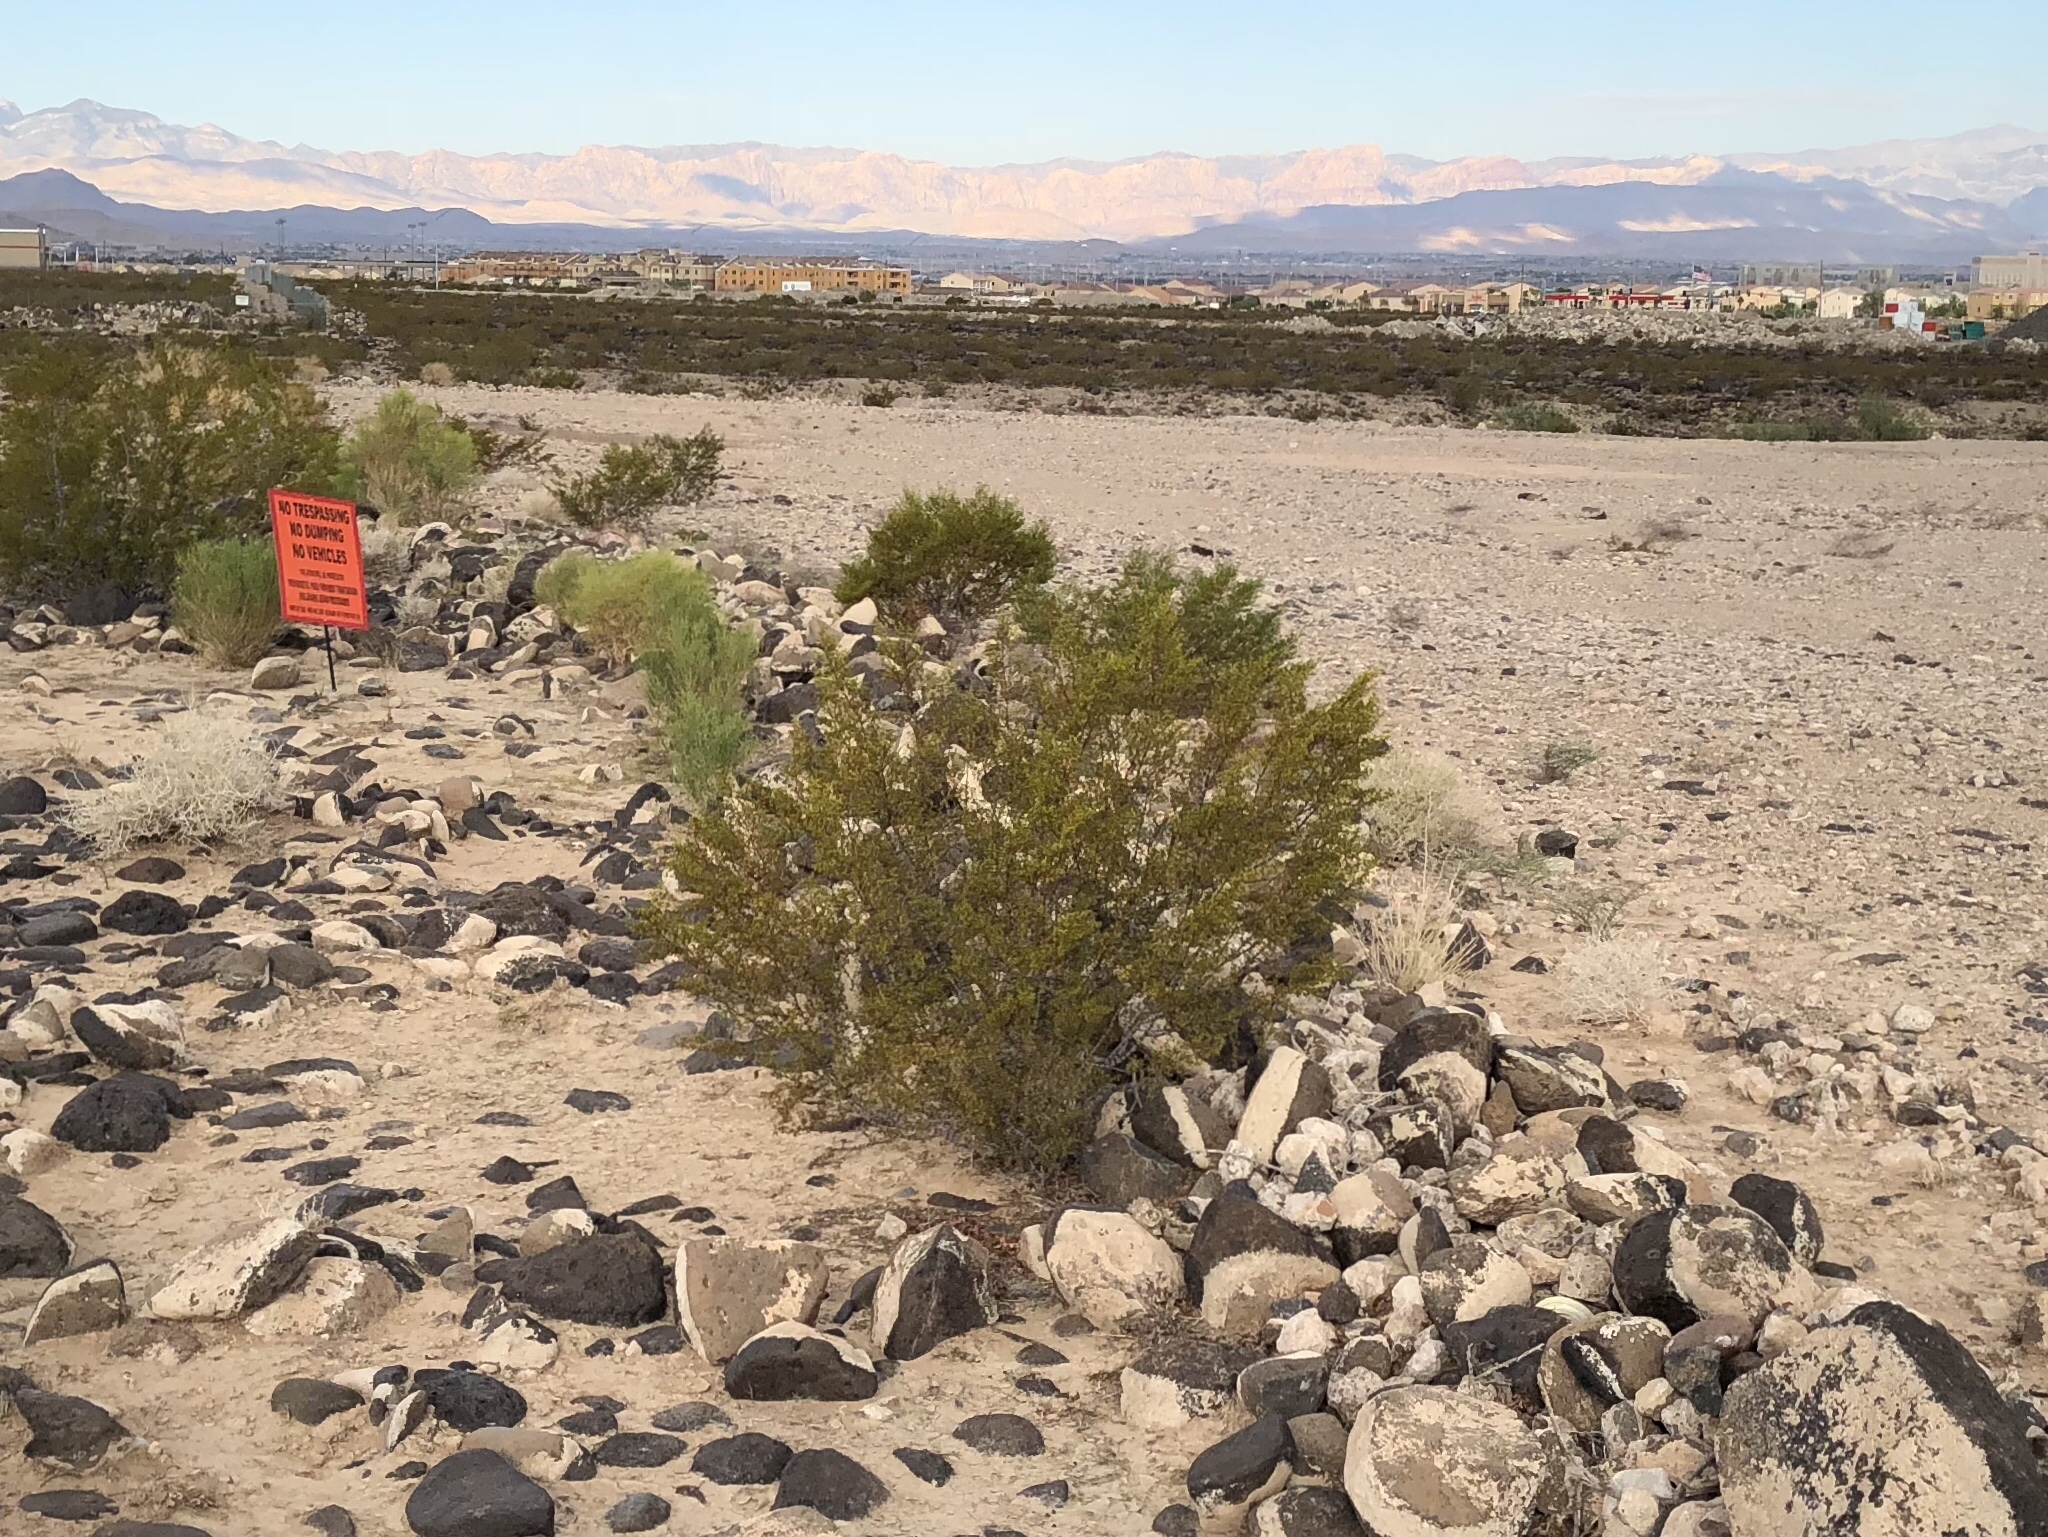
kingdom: Plantae
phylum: Tracheophyta
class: Magnoliopsida
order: Zygophyllales
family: Zygophyllaceae
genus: Larrea
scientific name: Larrea tridentata
